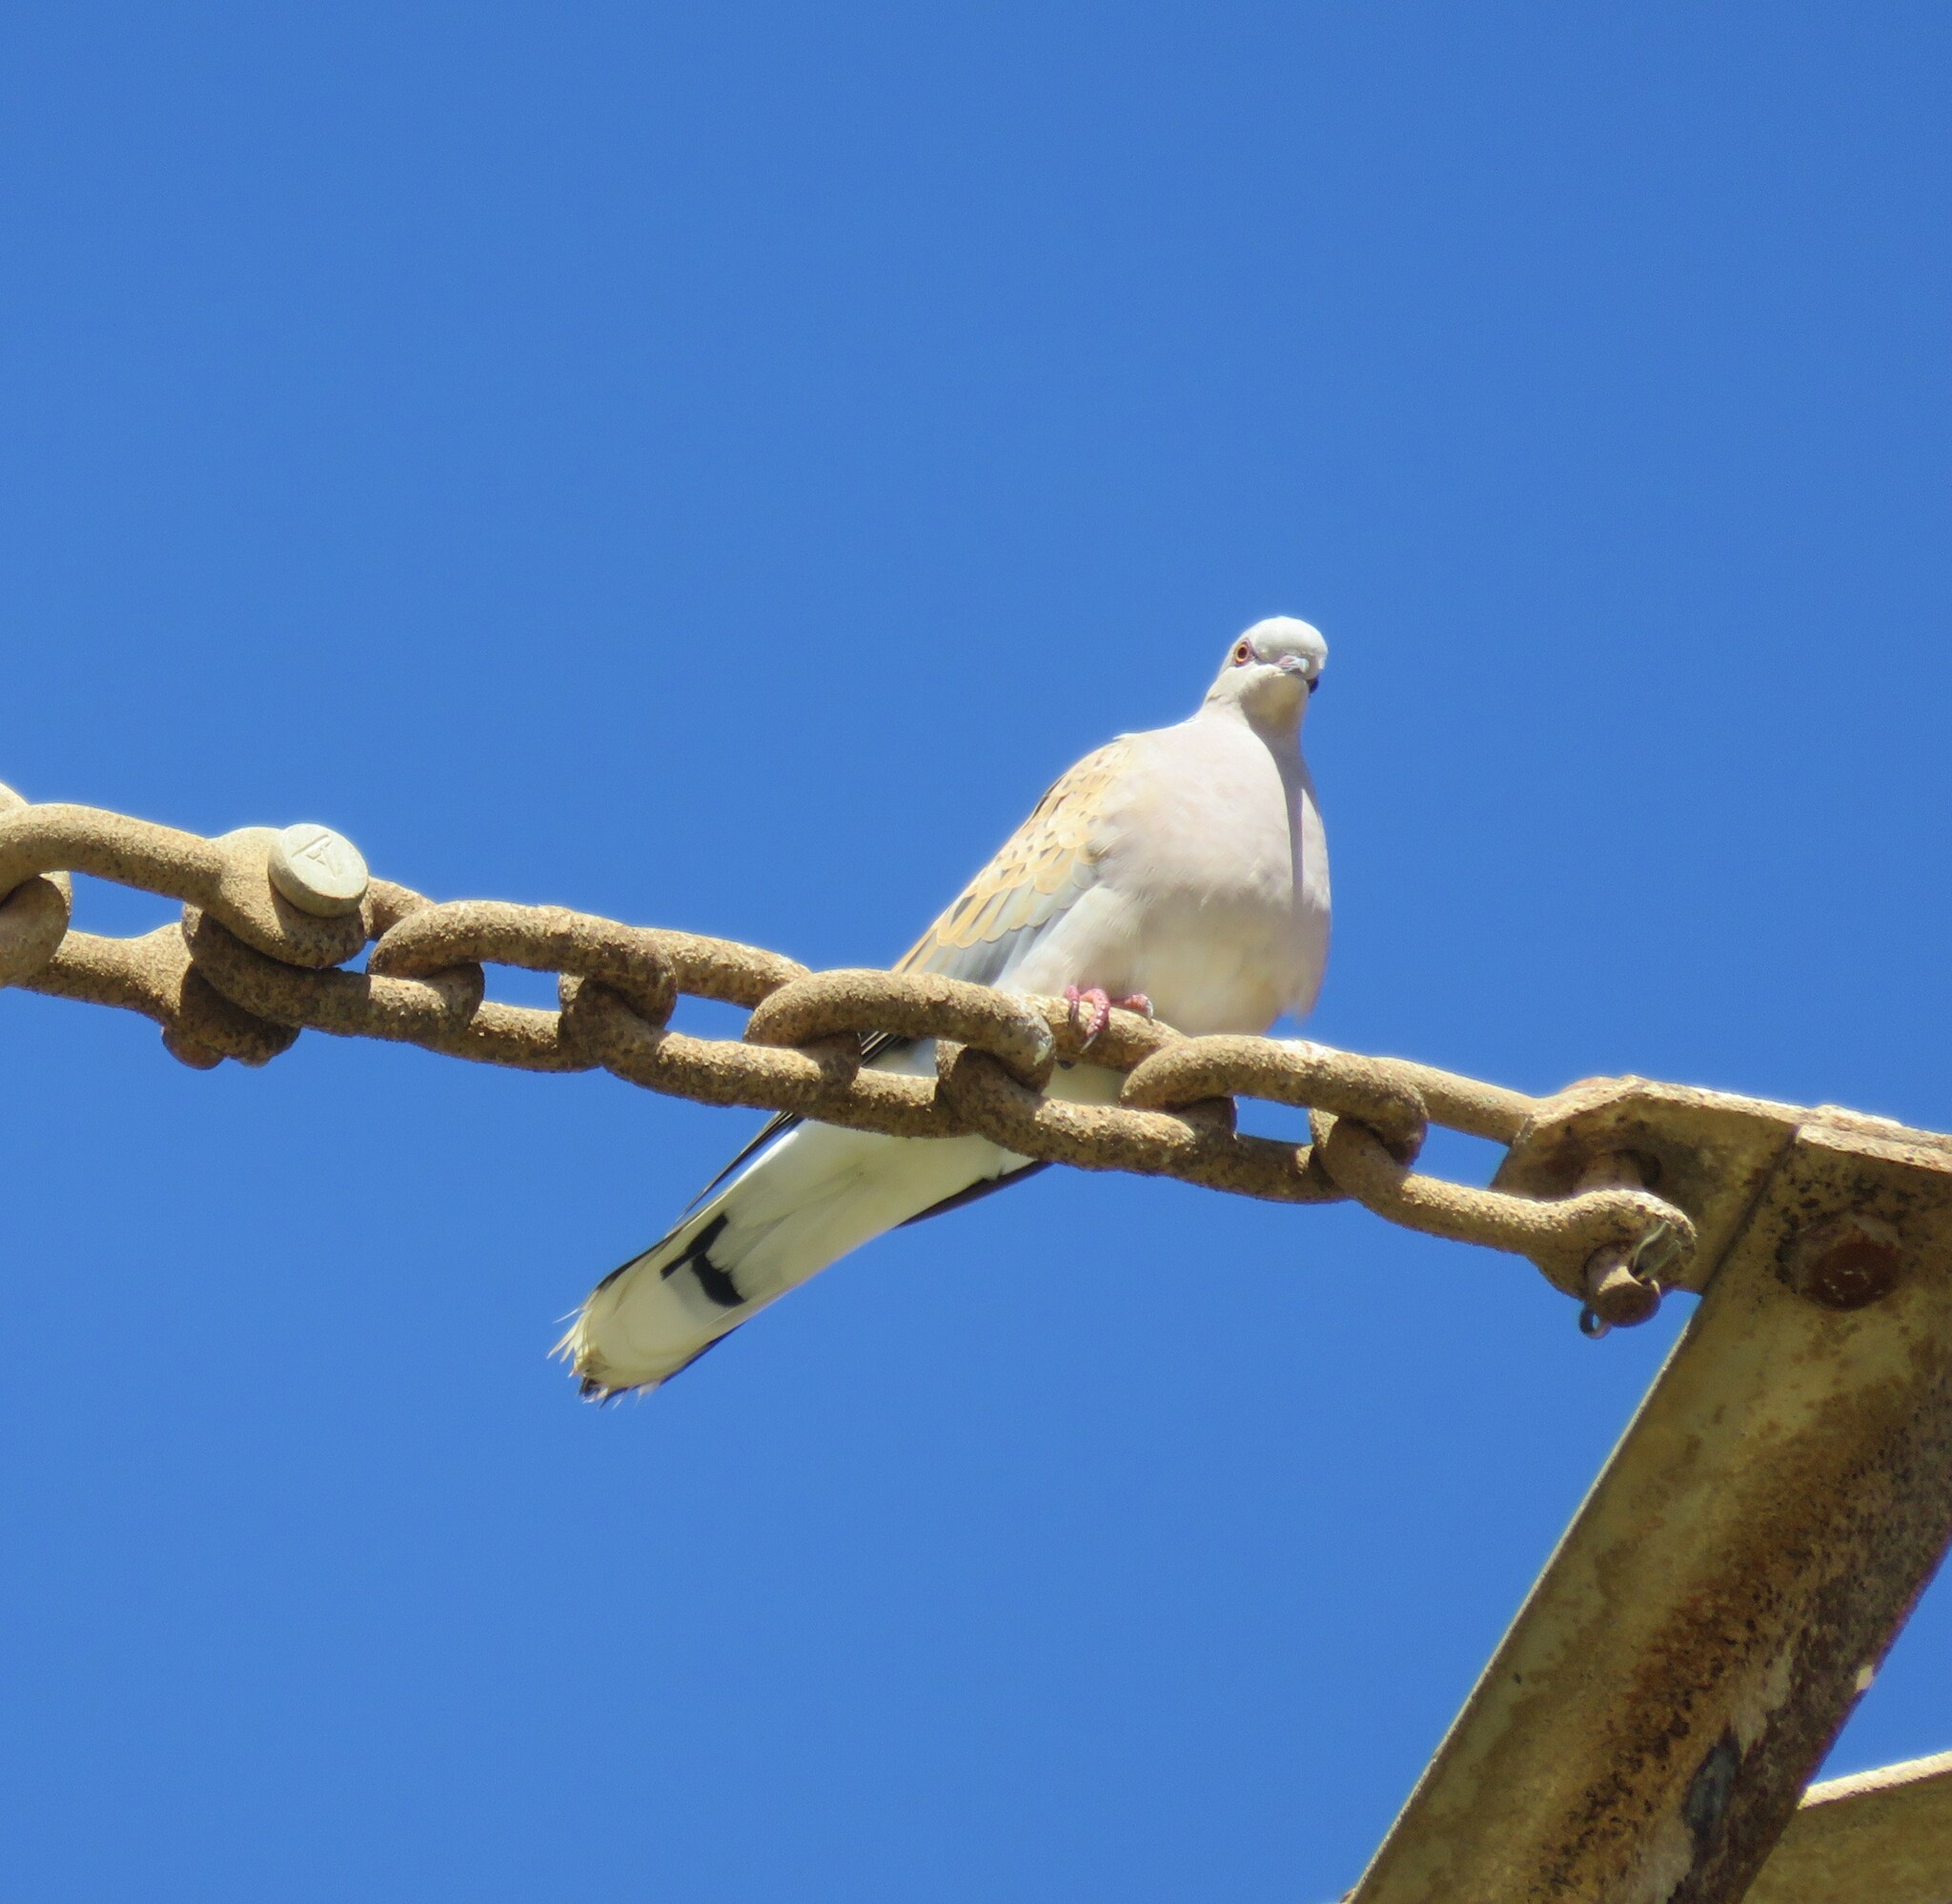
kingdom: Animalia
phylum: Chordata
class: Aves
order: Columbiformes
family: Columbidae
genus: Streptopelia
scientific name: Streptopelia turtur
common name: European turtle dove
